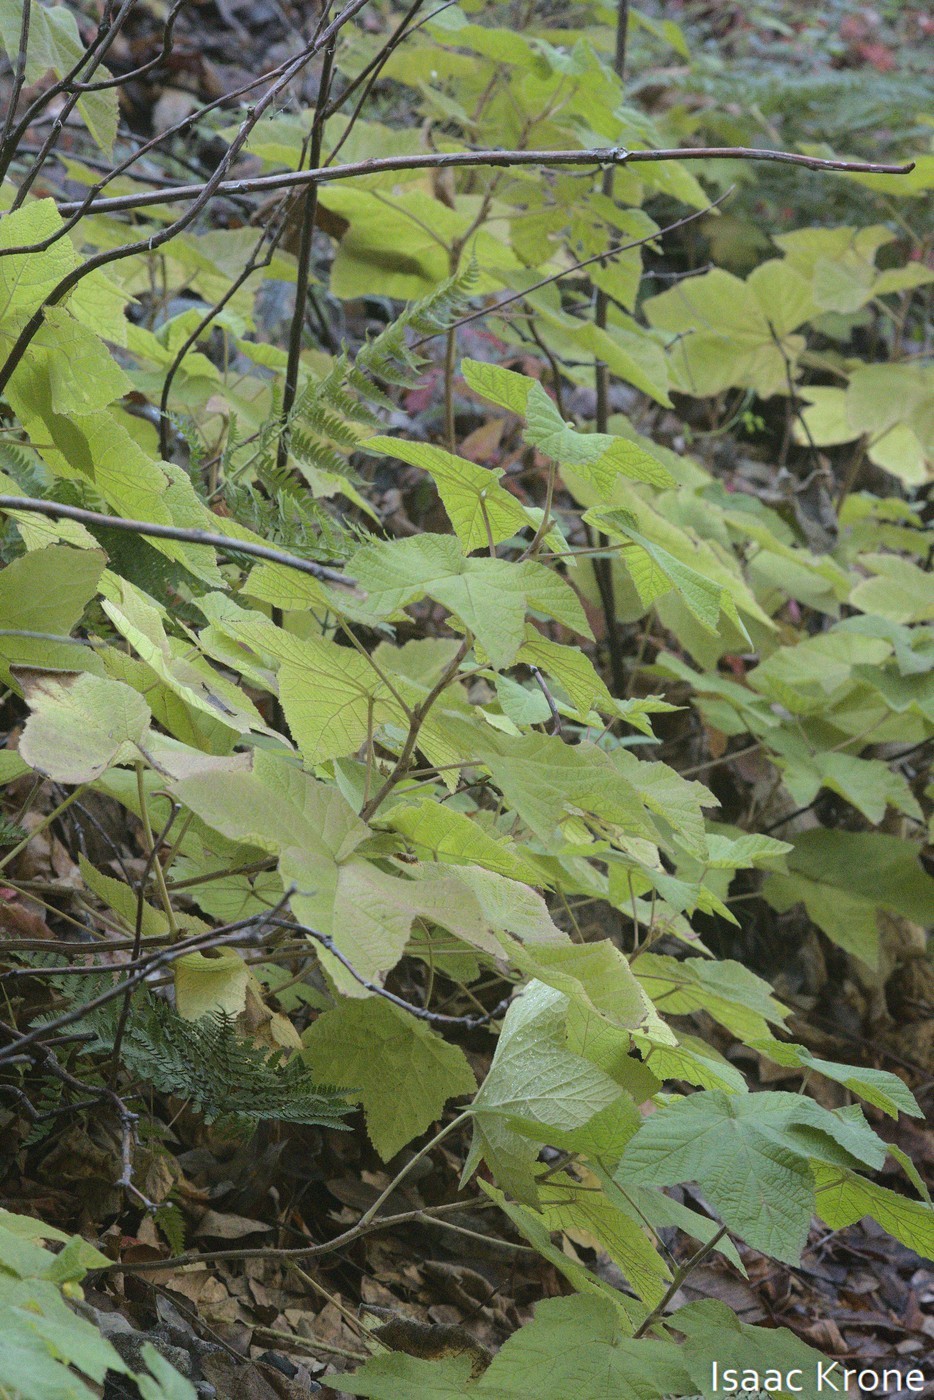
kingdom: Plantae
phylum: Tracheophyta
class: Magnoliopsida
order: Rosales
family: Rosaceae
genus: Rubus
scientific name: Rubus parviflorus
